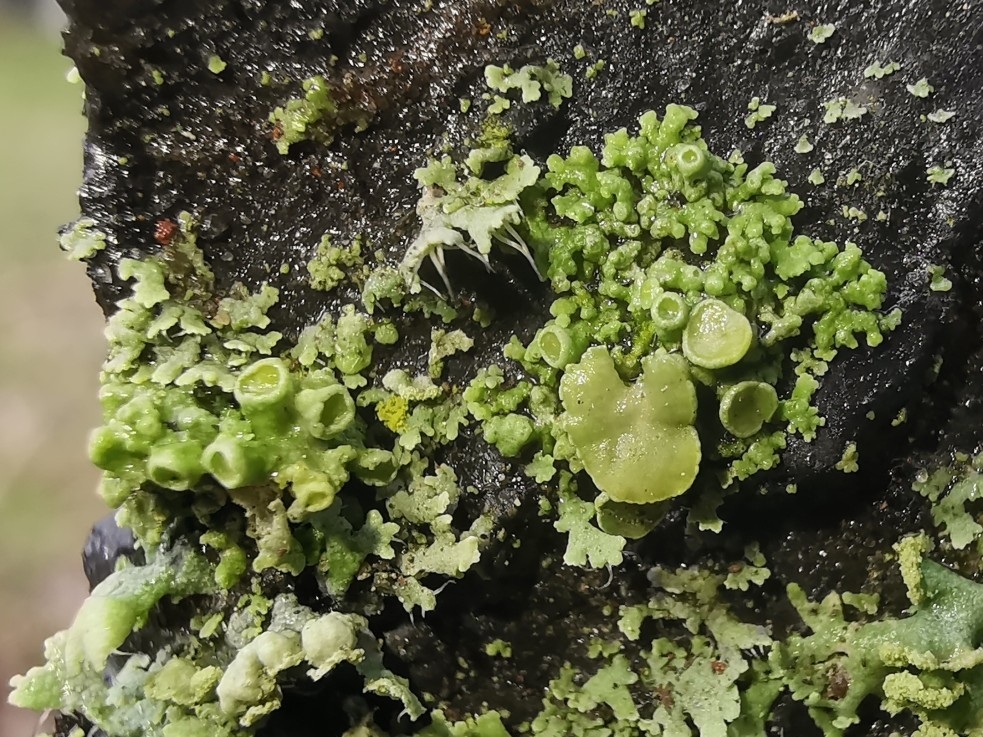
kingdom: Fungi
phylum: Ascomycota
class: Lecanoromycetes
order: Teloschistales
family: Teloschistaceae
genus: Polycauliona
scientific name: Polycauliona polycarpa
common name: Pin-cushion sunburst lichen
